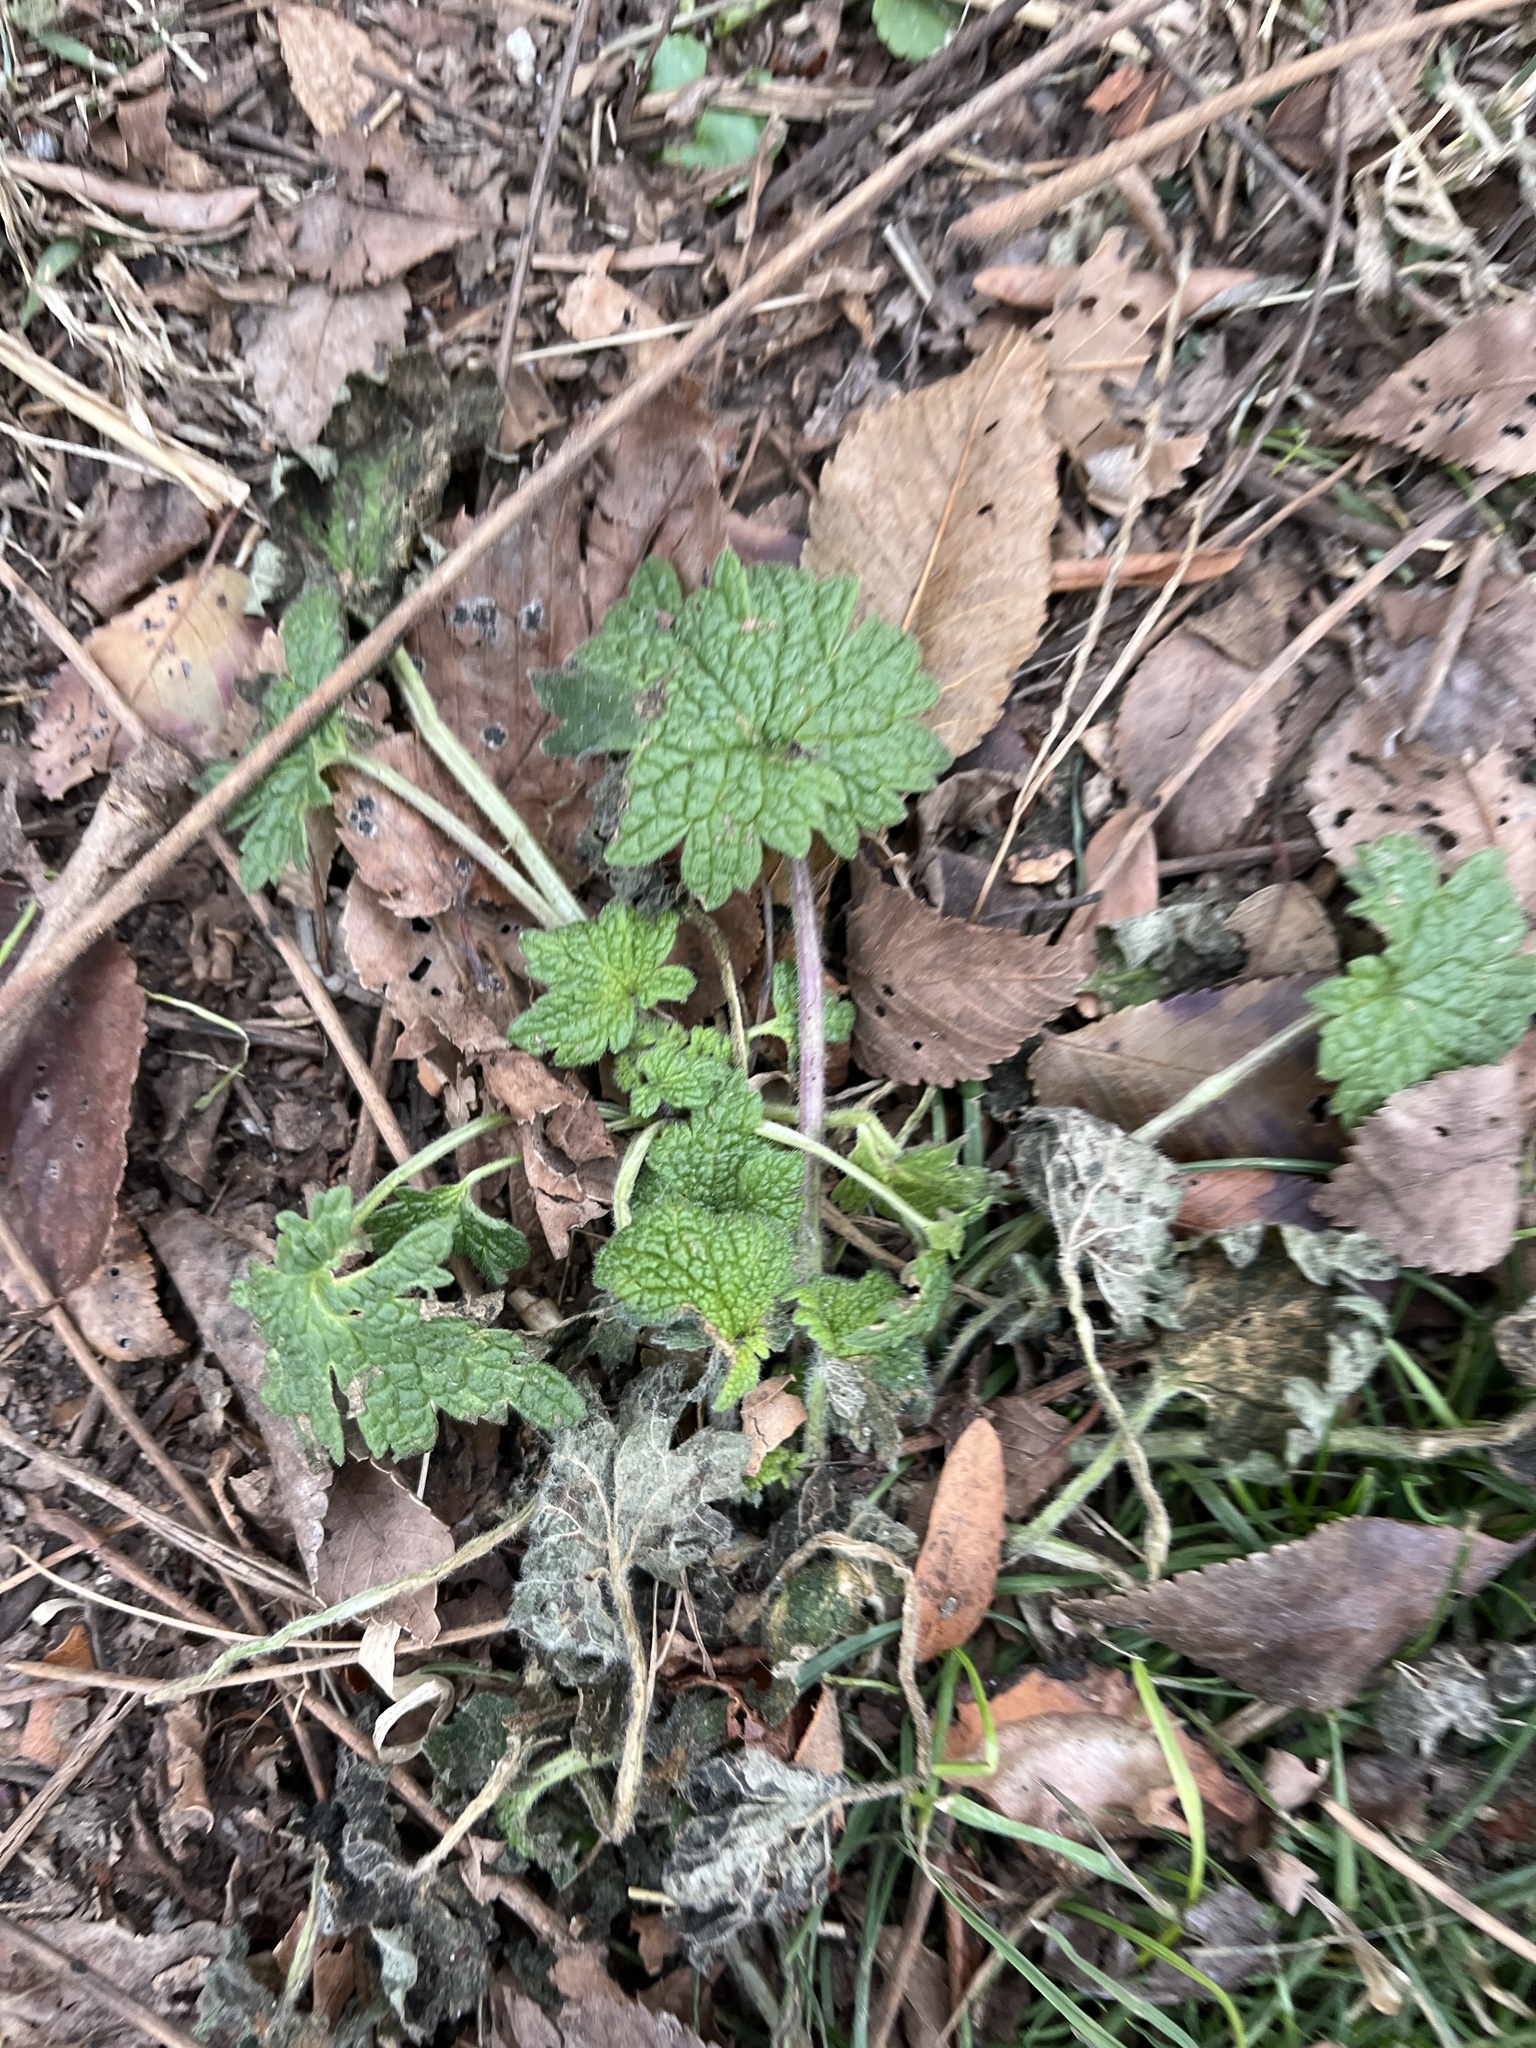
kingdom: Plantae
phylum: Tracheophyta
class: Magnoliopsida
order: Lamiales
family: Lamiaceae
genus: Leonurus
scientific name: Leonurus cardiaca
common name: Motherwort
